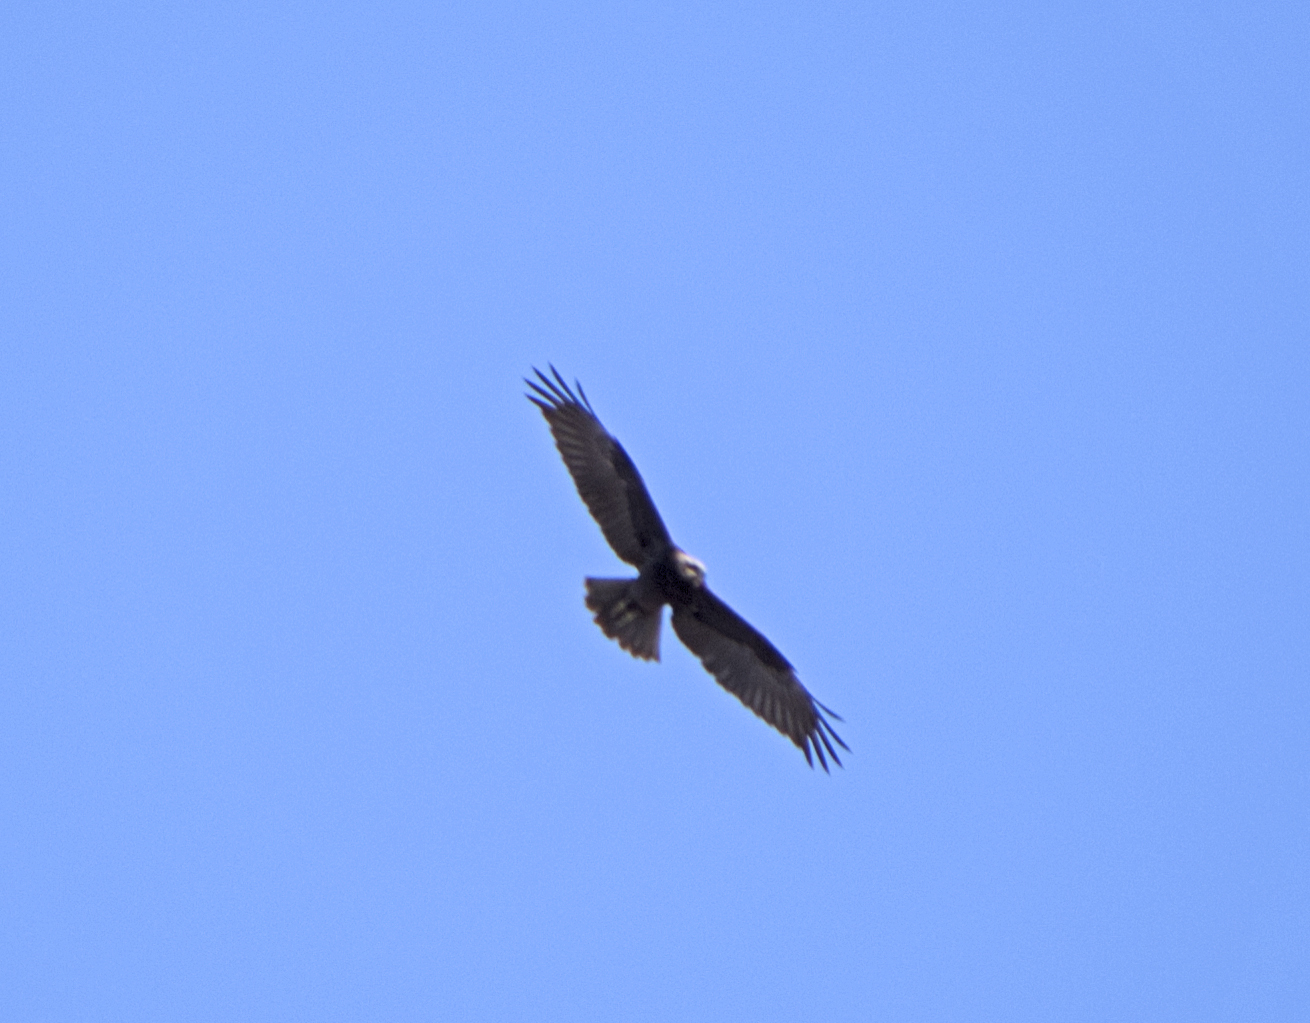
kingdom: Animalia
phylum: Chordata
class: Aves
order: Accipitriformes
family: Accipitridae
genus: Circus
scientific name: Circus aeruginosus
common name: Western marsh harrier
